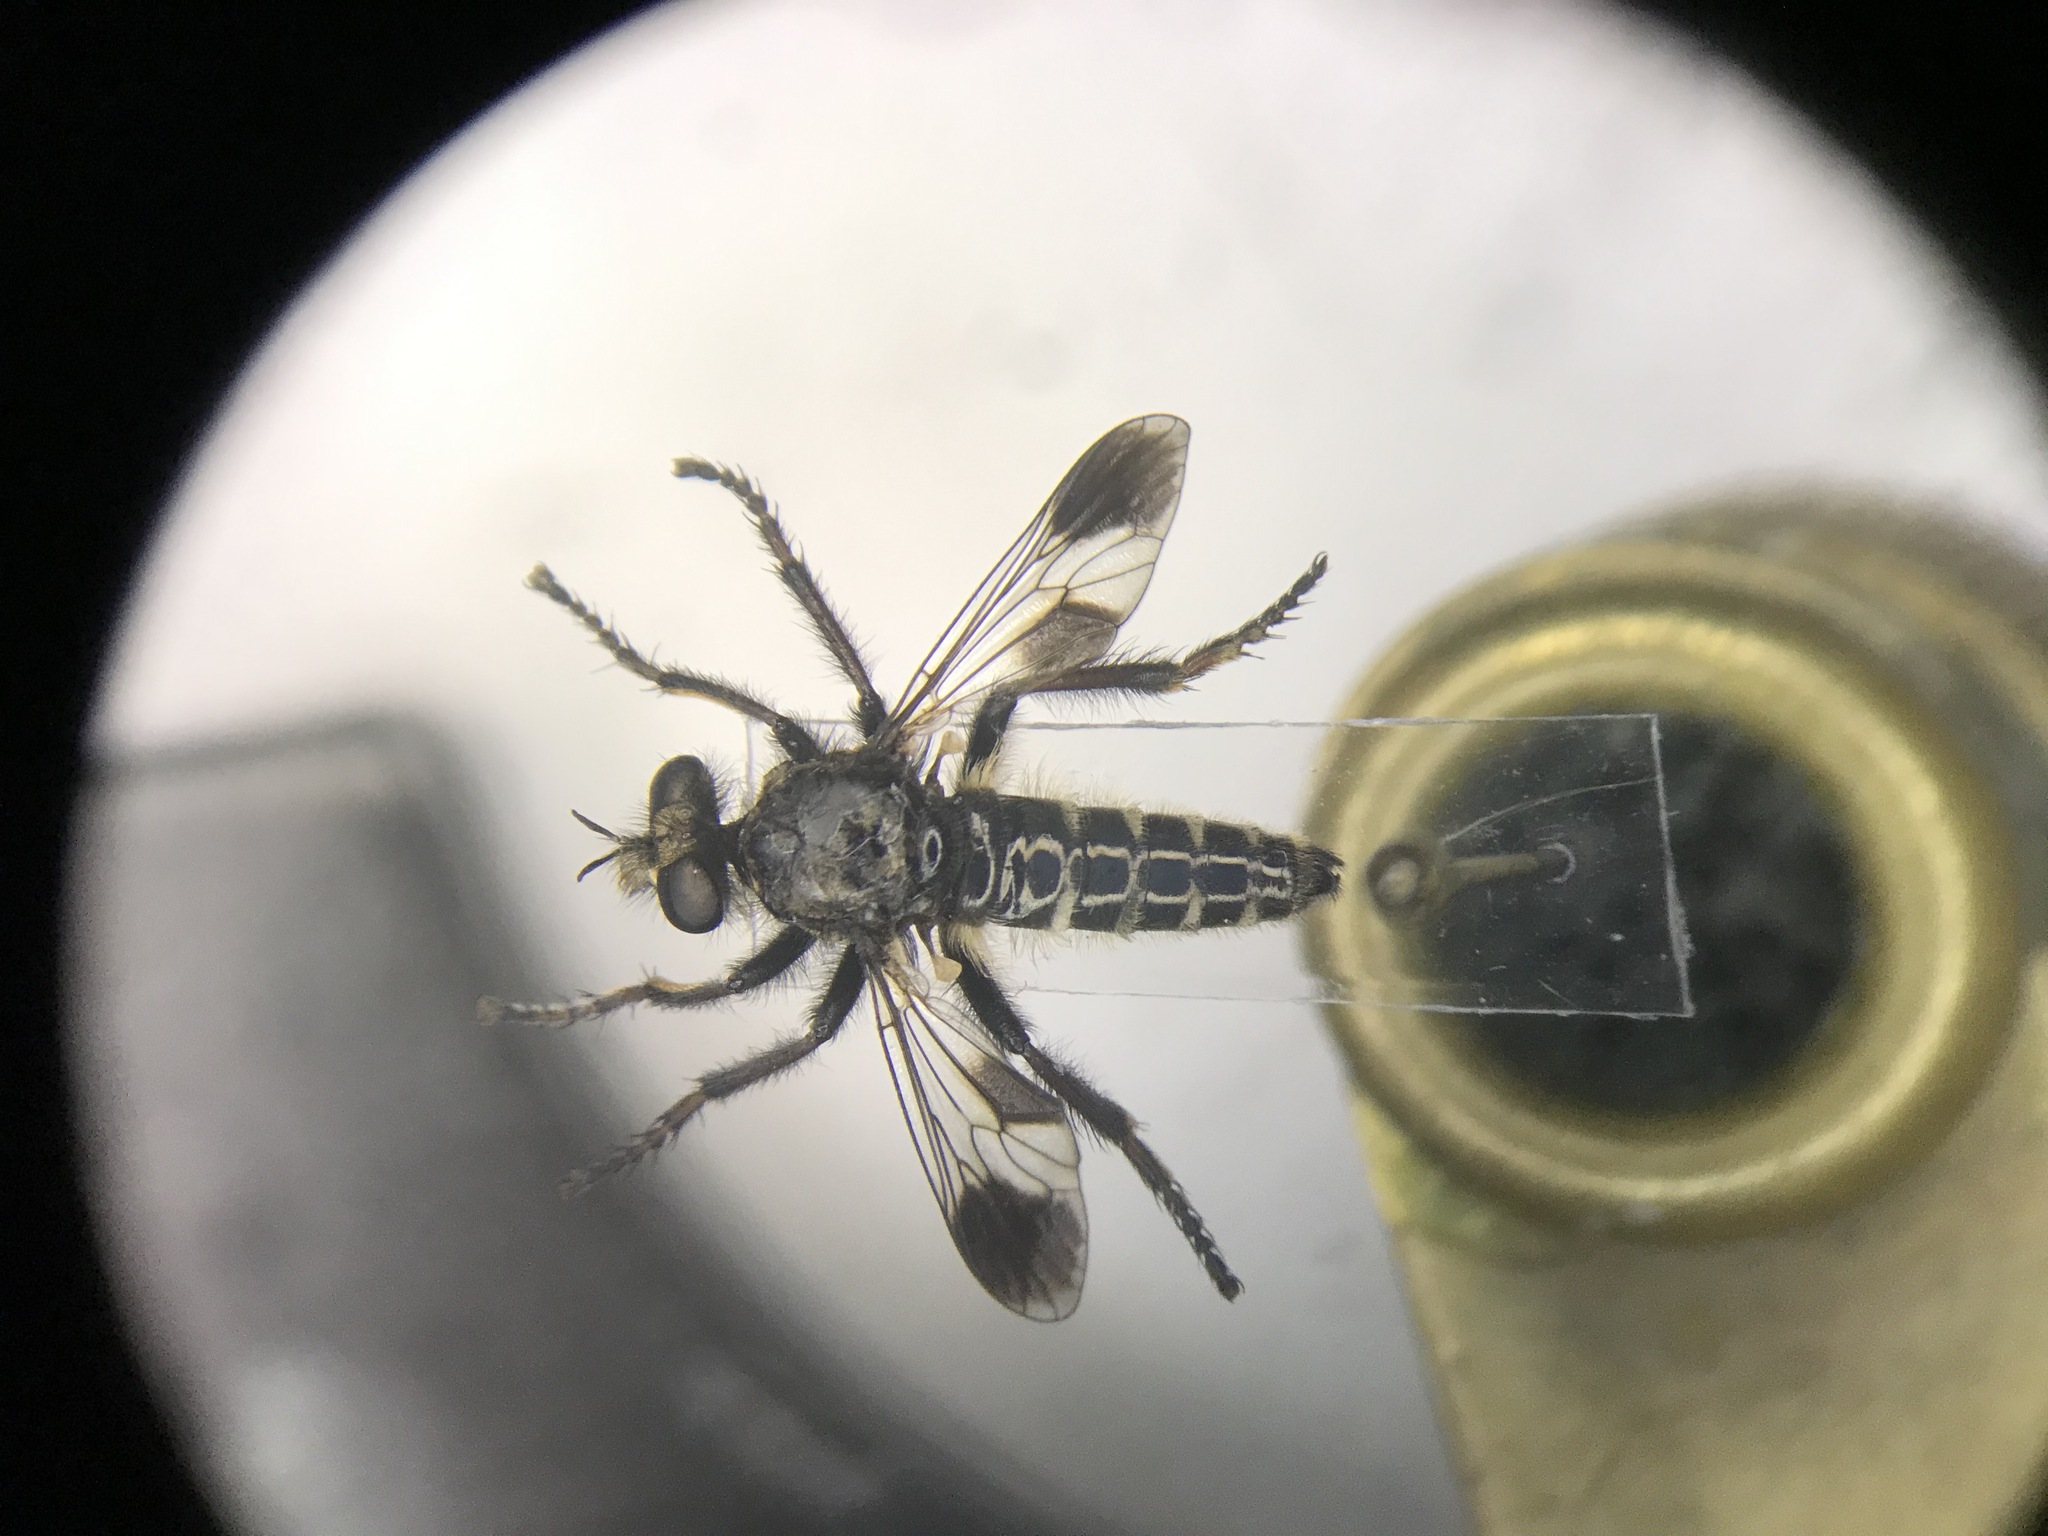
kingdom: Animalia
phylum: Arthropoda
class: Insecta
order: Diptera
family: Asilidae
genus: Cyrtopogon
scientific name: Cyrtopogon bimaculus
